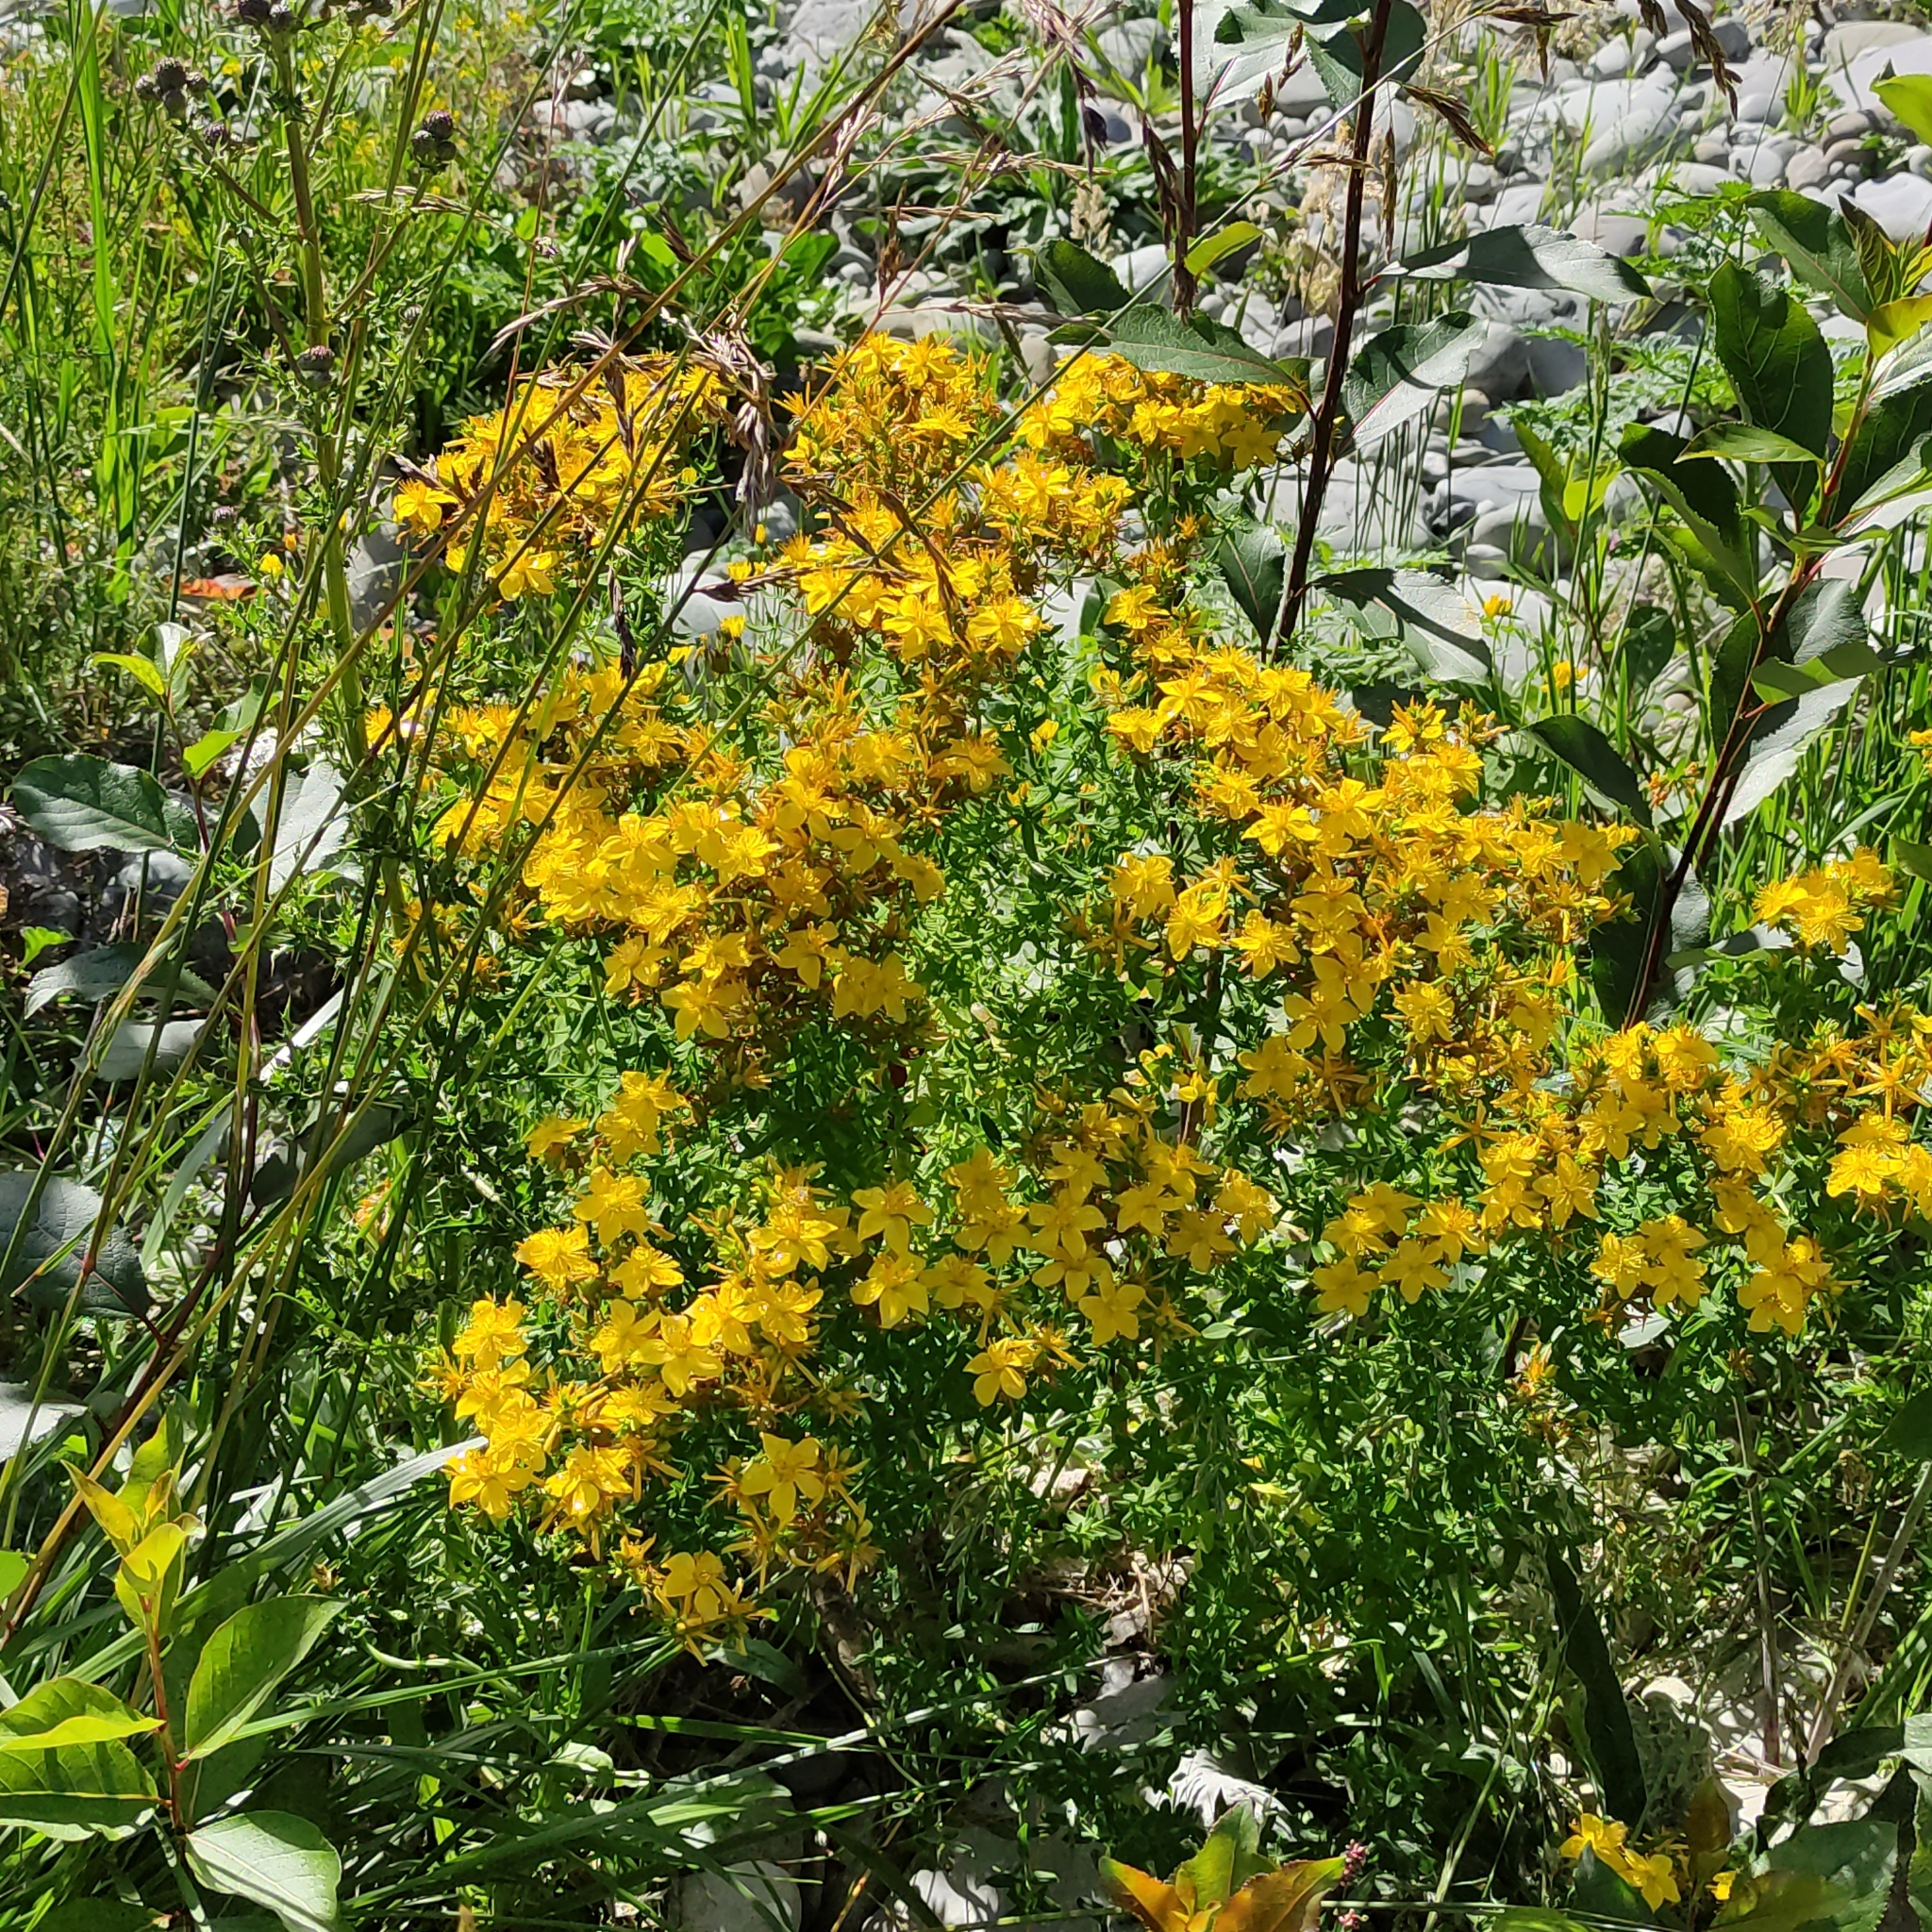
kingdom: Plantae
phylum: Tracheophyta
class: Magnoliopsida
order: Malpighiales
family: Hypericaceae
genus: Hypericum
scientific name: Hypericum perforatum
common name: Common st. johnswort
